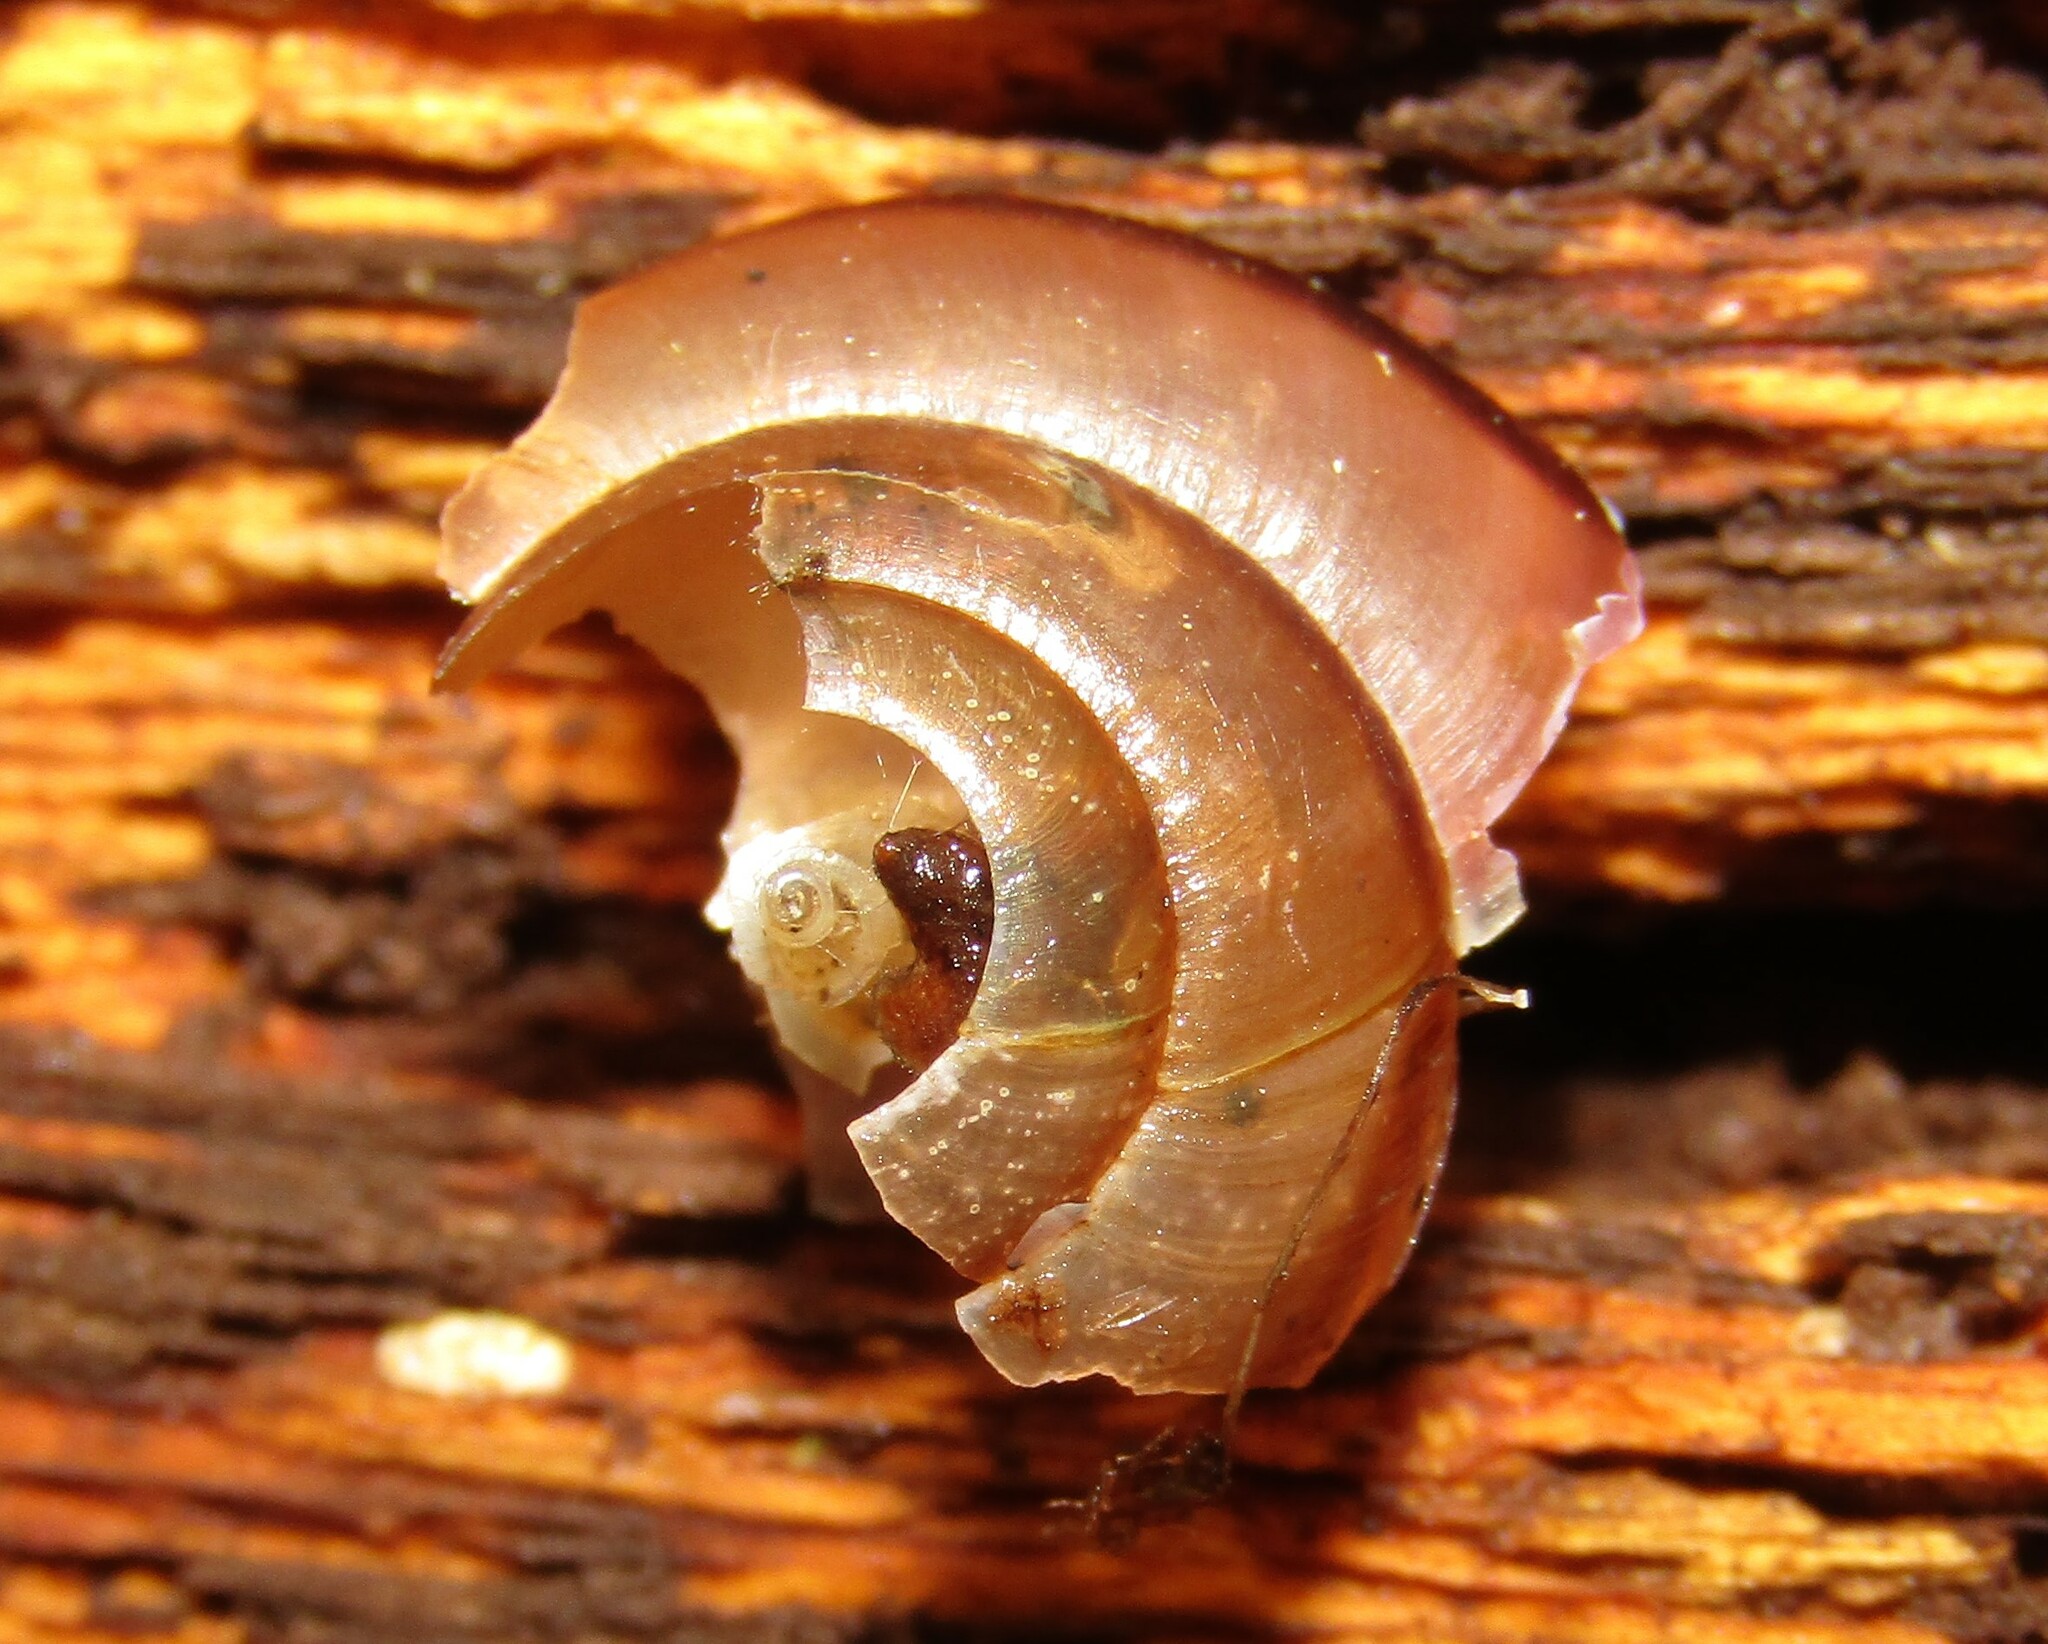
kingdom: Animalia
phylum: Mollusca
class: Gastropoda
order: Stylommatophora
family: Camaenidae
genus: Fruticicola
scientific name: Fruticicola fruticum
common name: Bush snail
